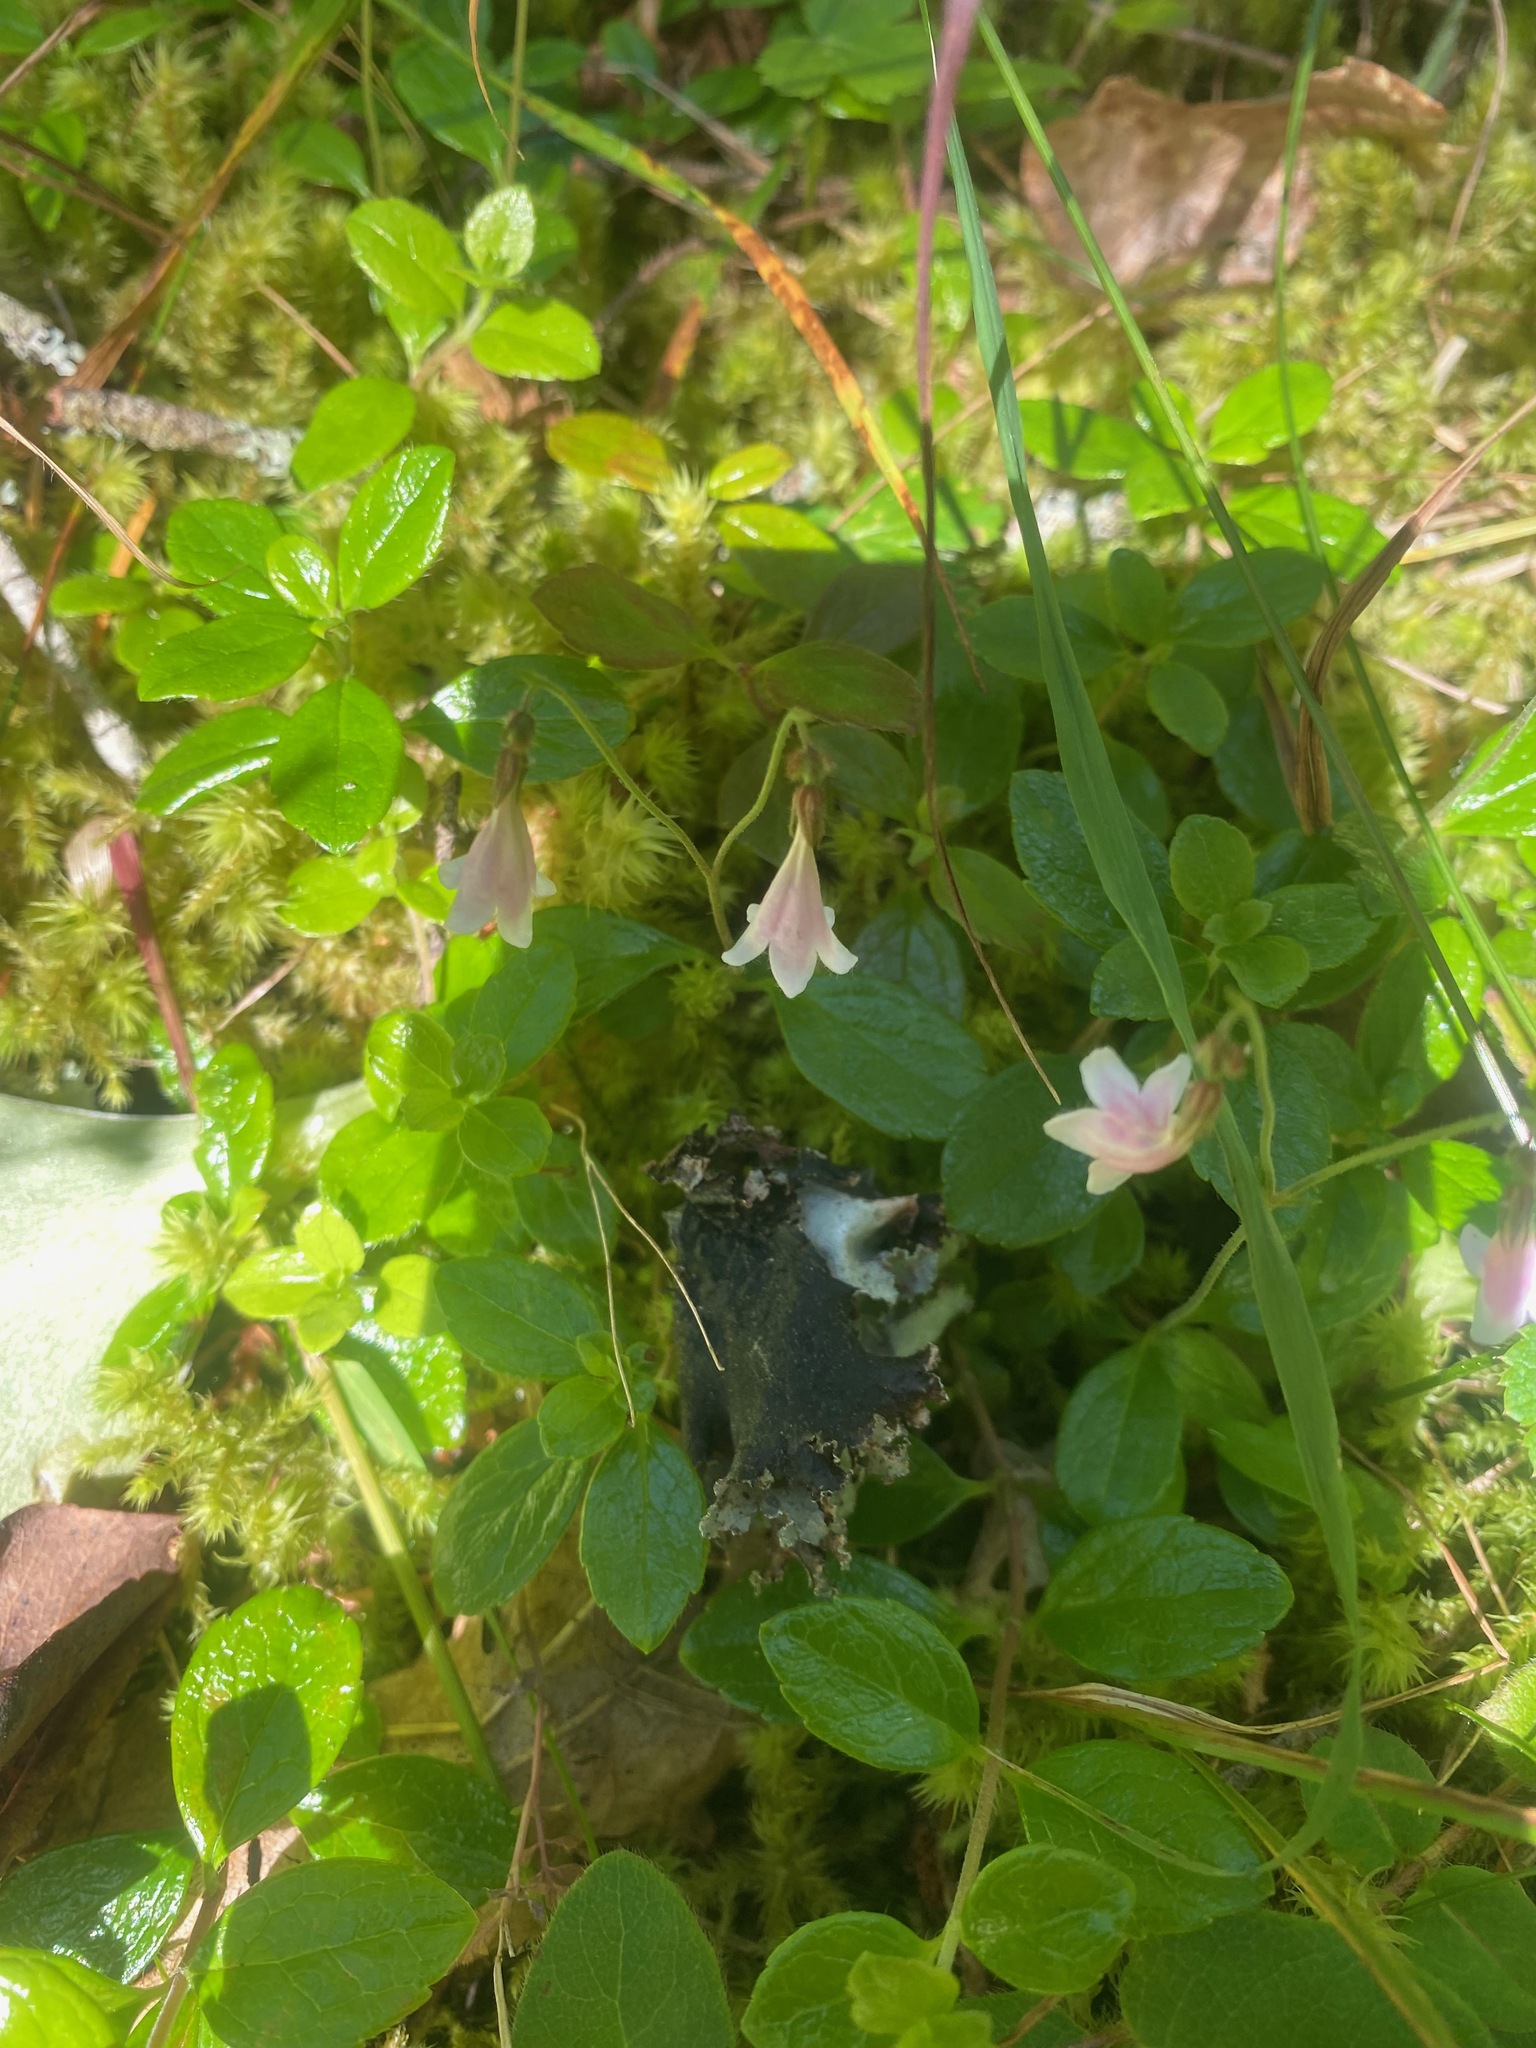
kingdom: Plantae
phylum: Tracheophyta
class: Magnoliopsida
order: Dipsacales
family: Caprifoliaceae
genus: Linnaea
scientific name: Linnaea borealis
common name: Twinflower
